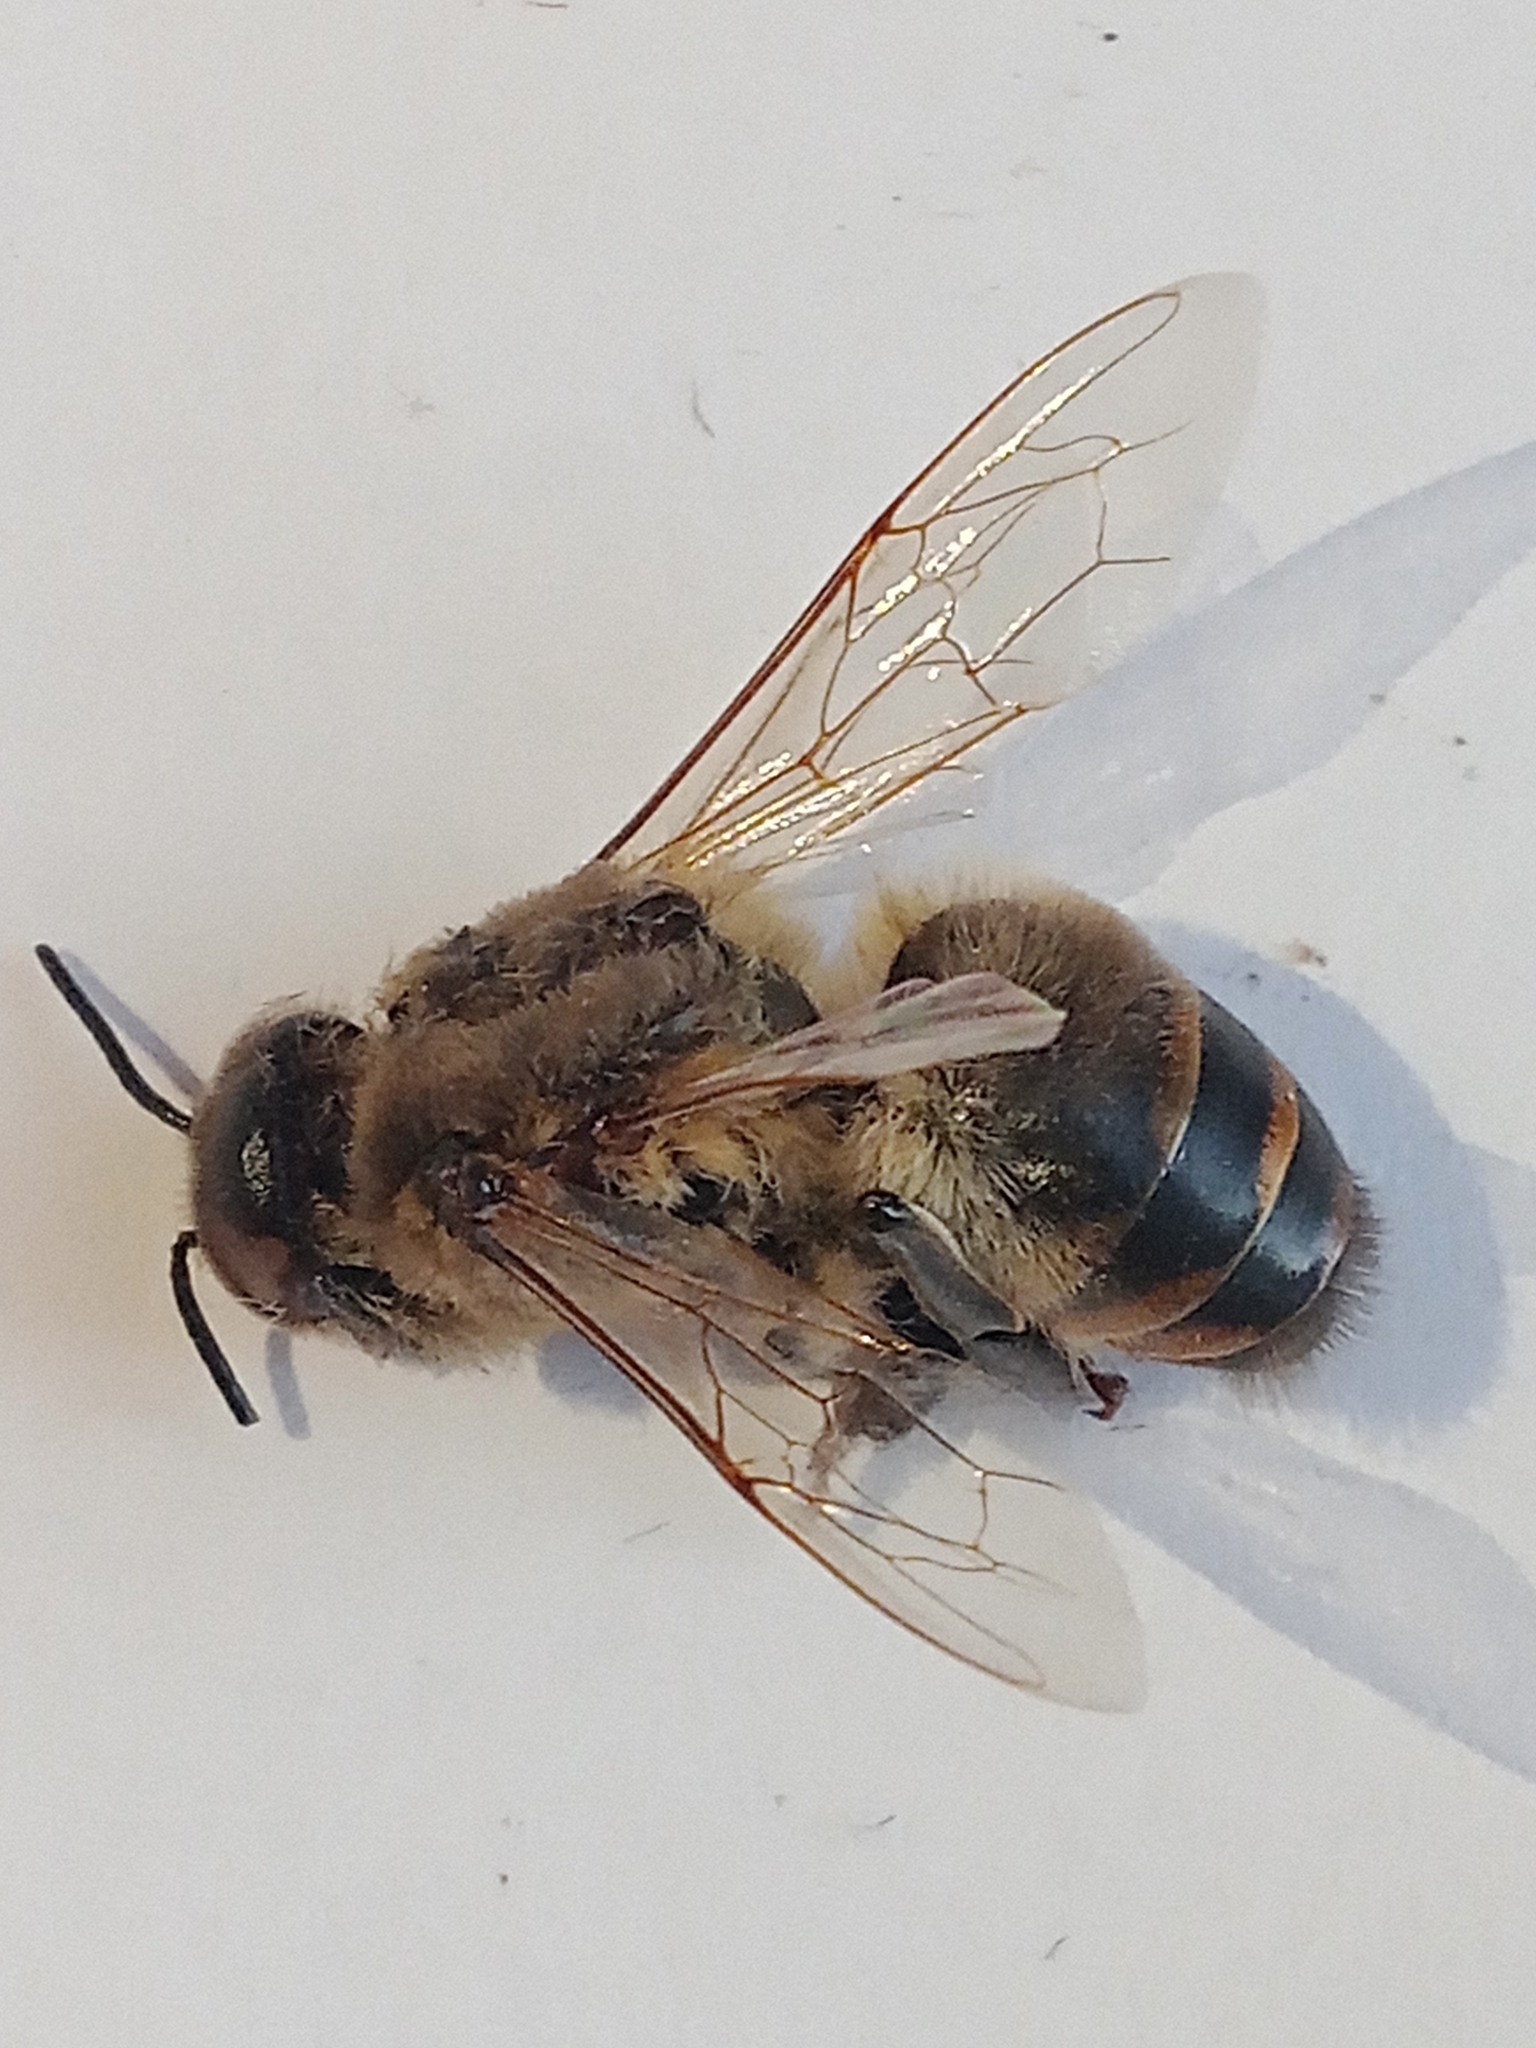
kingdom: Animalia
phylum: Arthropoda
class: Insecta
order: Hymenoptera
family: Apidae
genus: Apis
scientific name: Apis mellifera
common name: Honey bee
